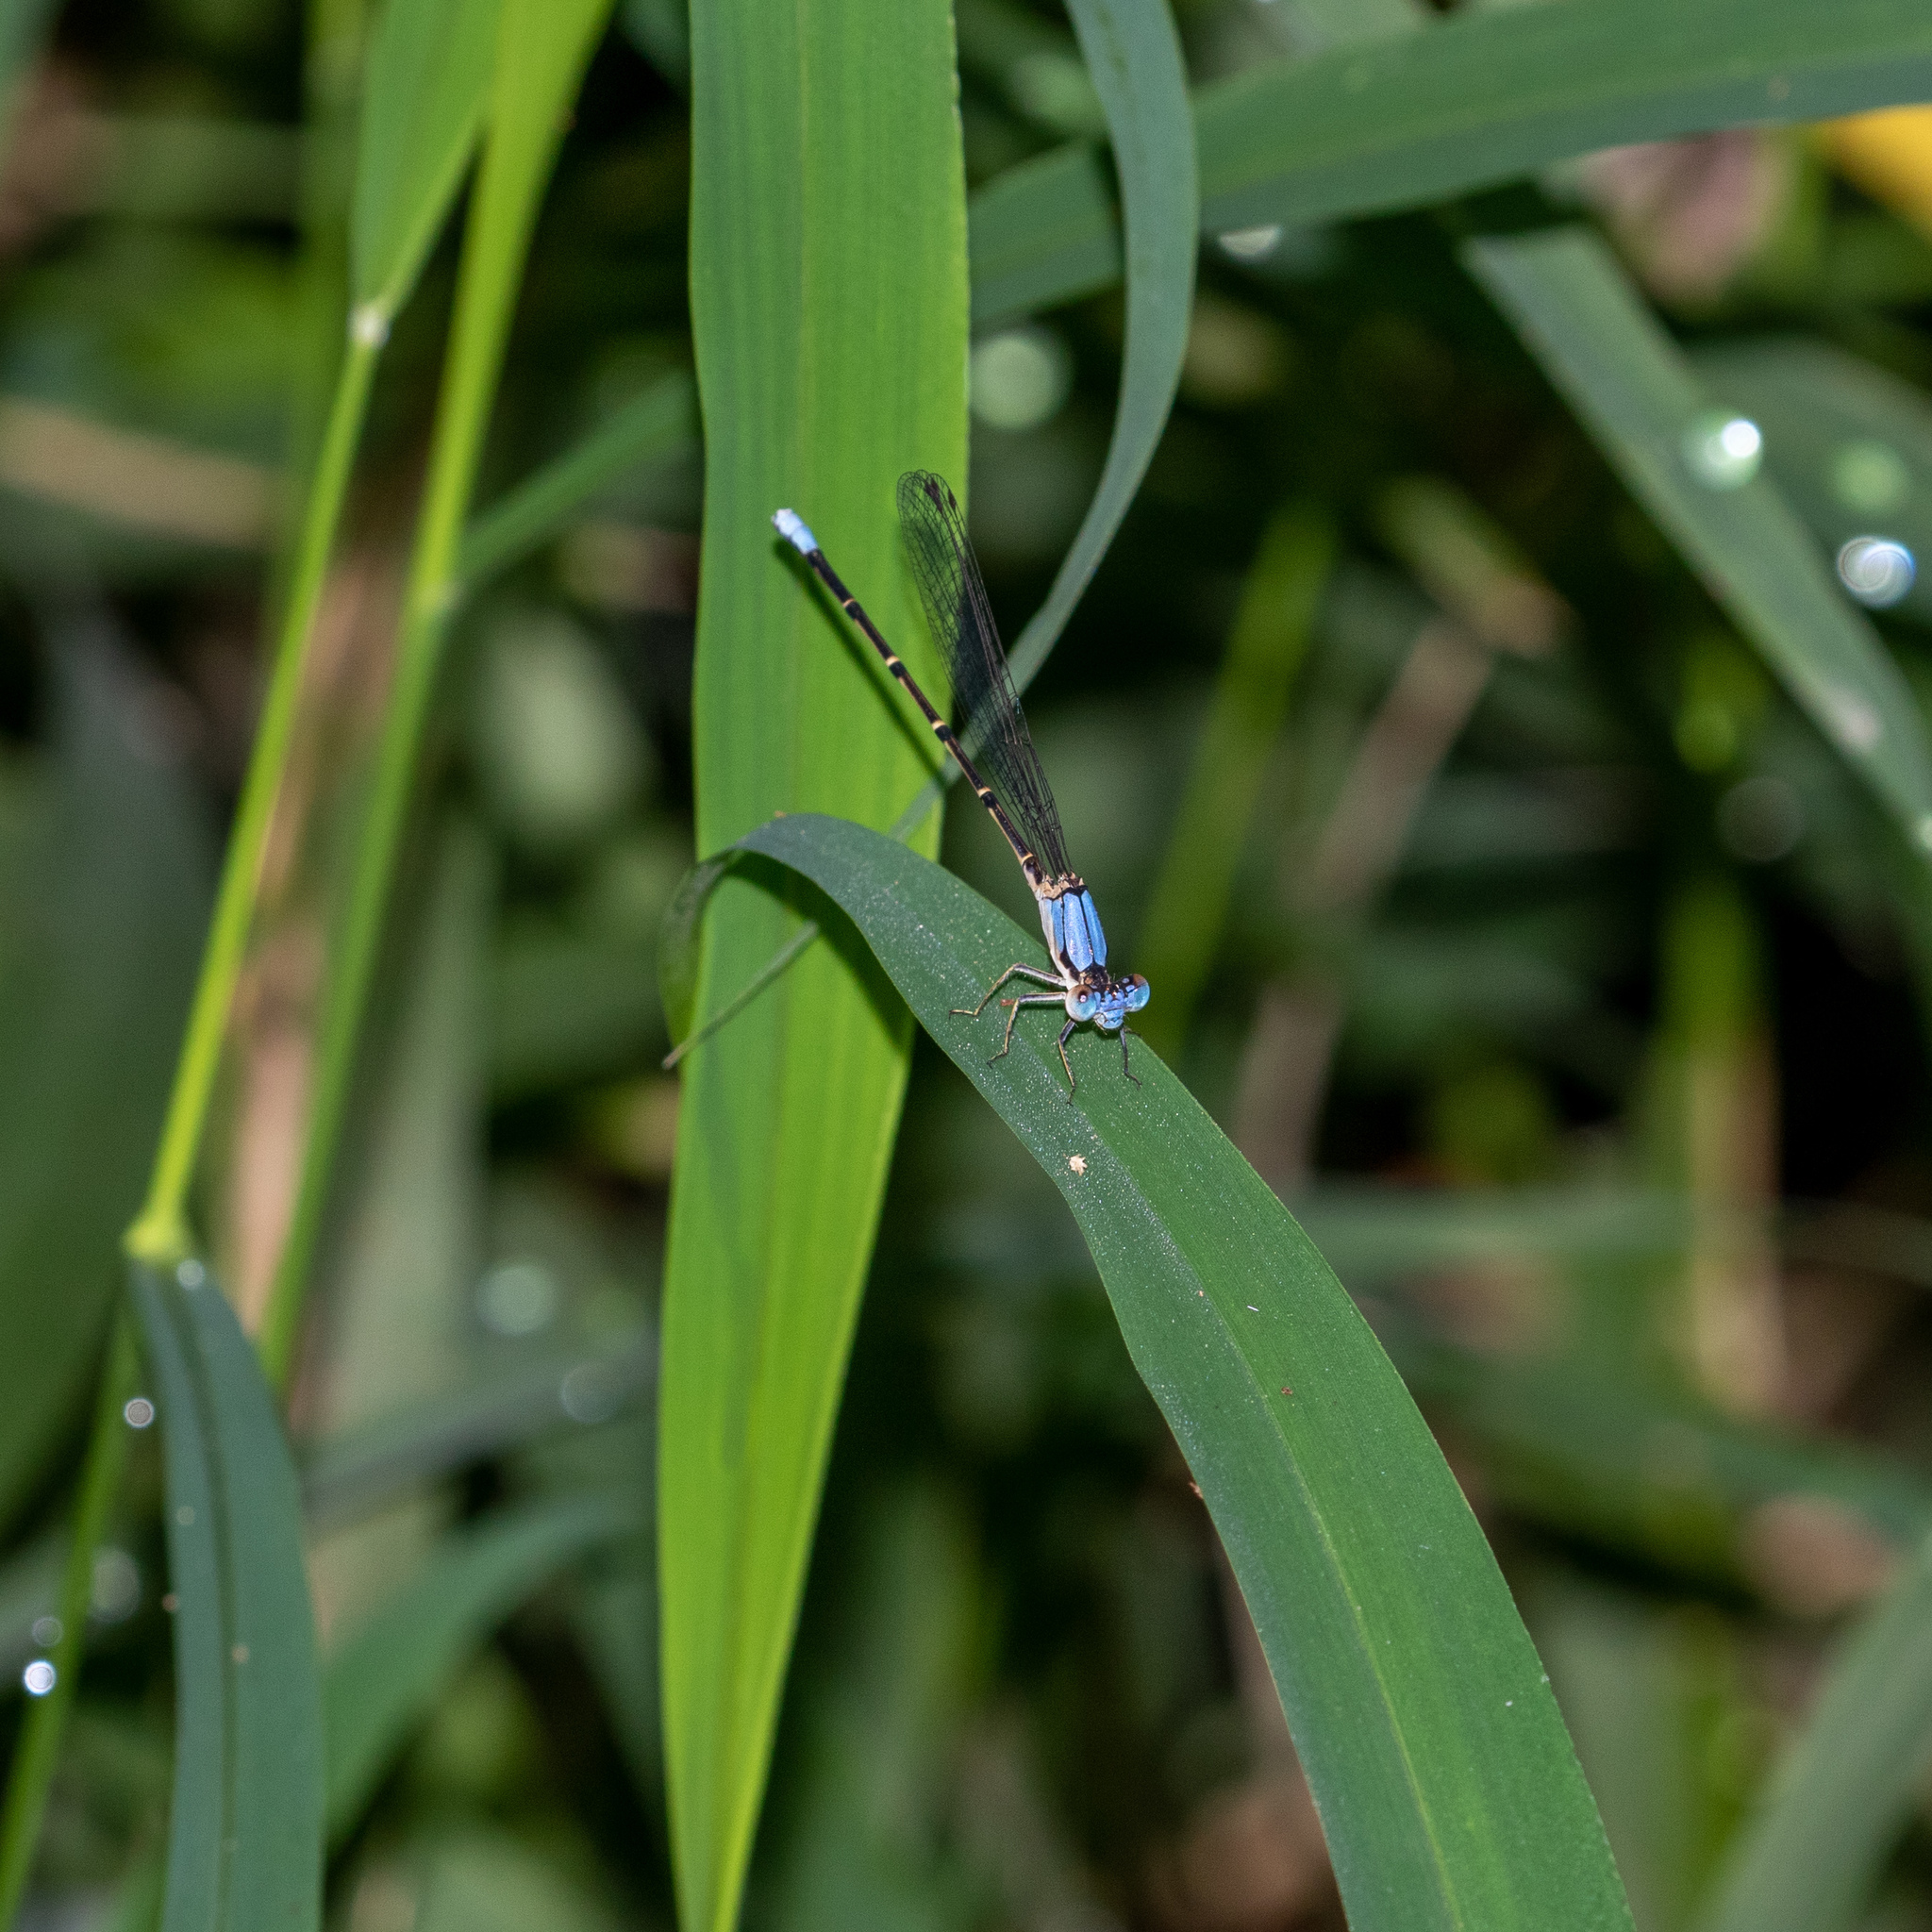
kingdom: Animalia
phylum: Arthropoda
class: Insecta
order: Odonata
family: Coenagrionidae
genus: Argia
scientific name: Argia apicalis
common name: Blue-fronted dancer
